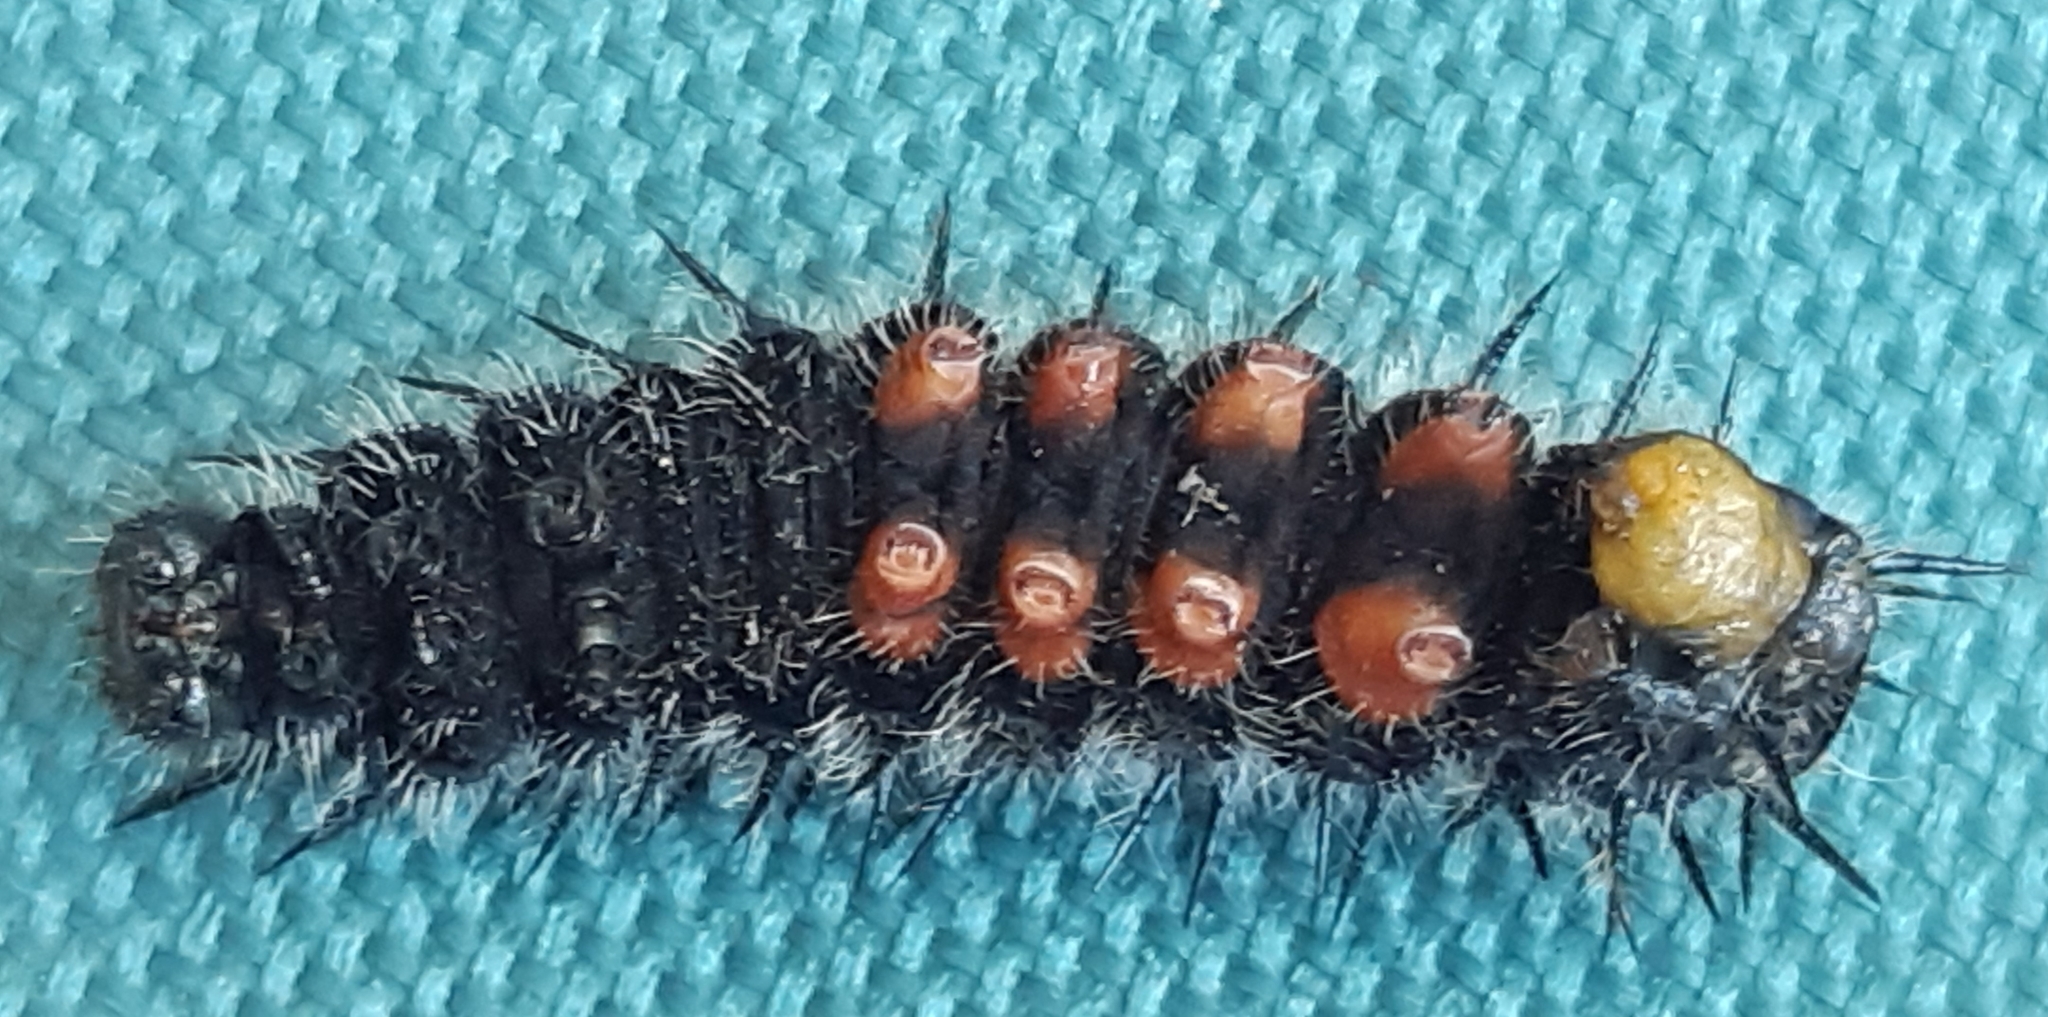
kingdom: Animalia
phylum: Arthropoda
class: Insecta
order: Lepidoptera
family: Nymphalidae
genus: Nymphalis
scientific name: Nymphalis antiopa
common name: Camberwell beauty
